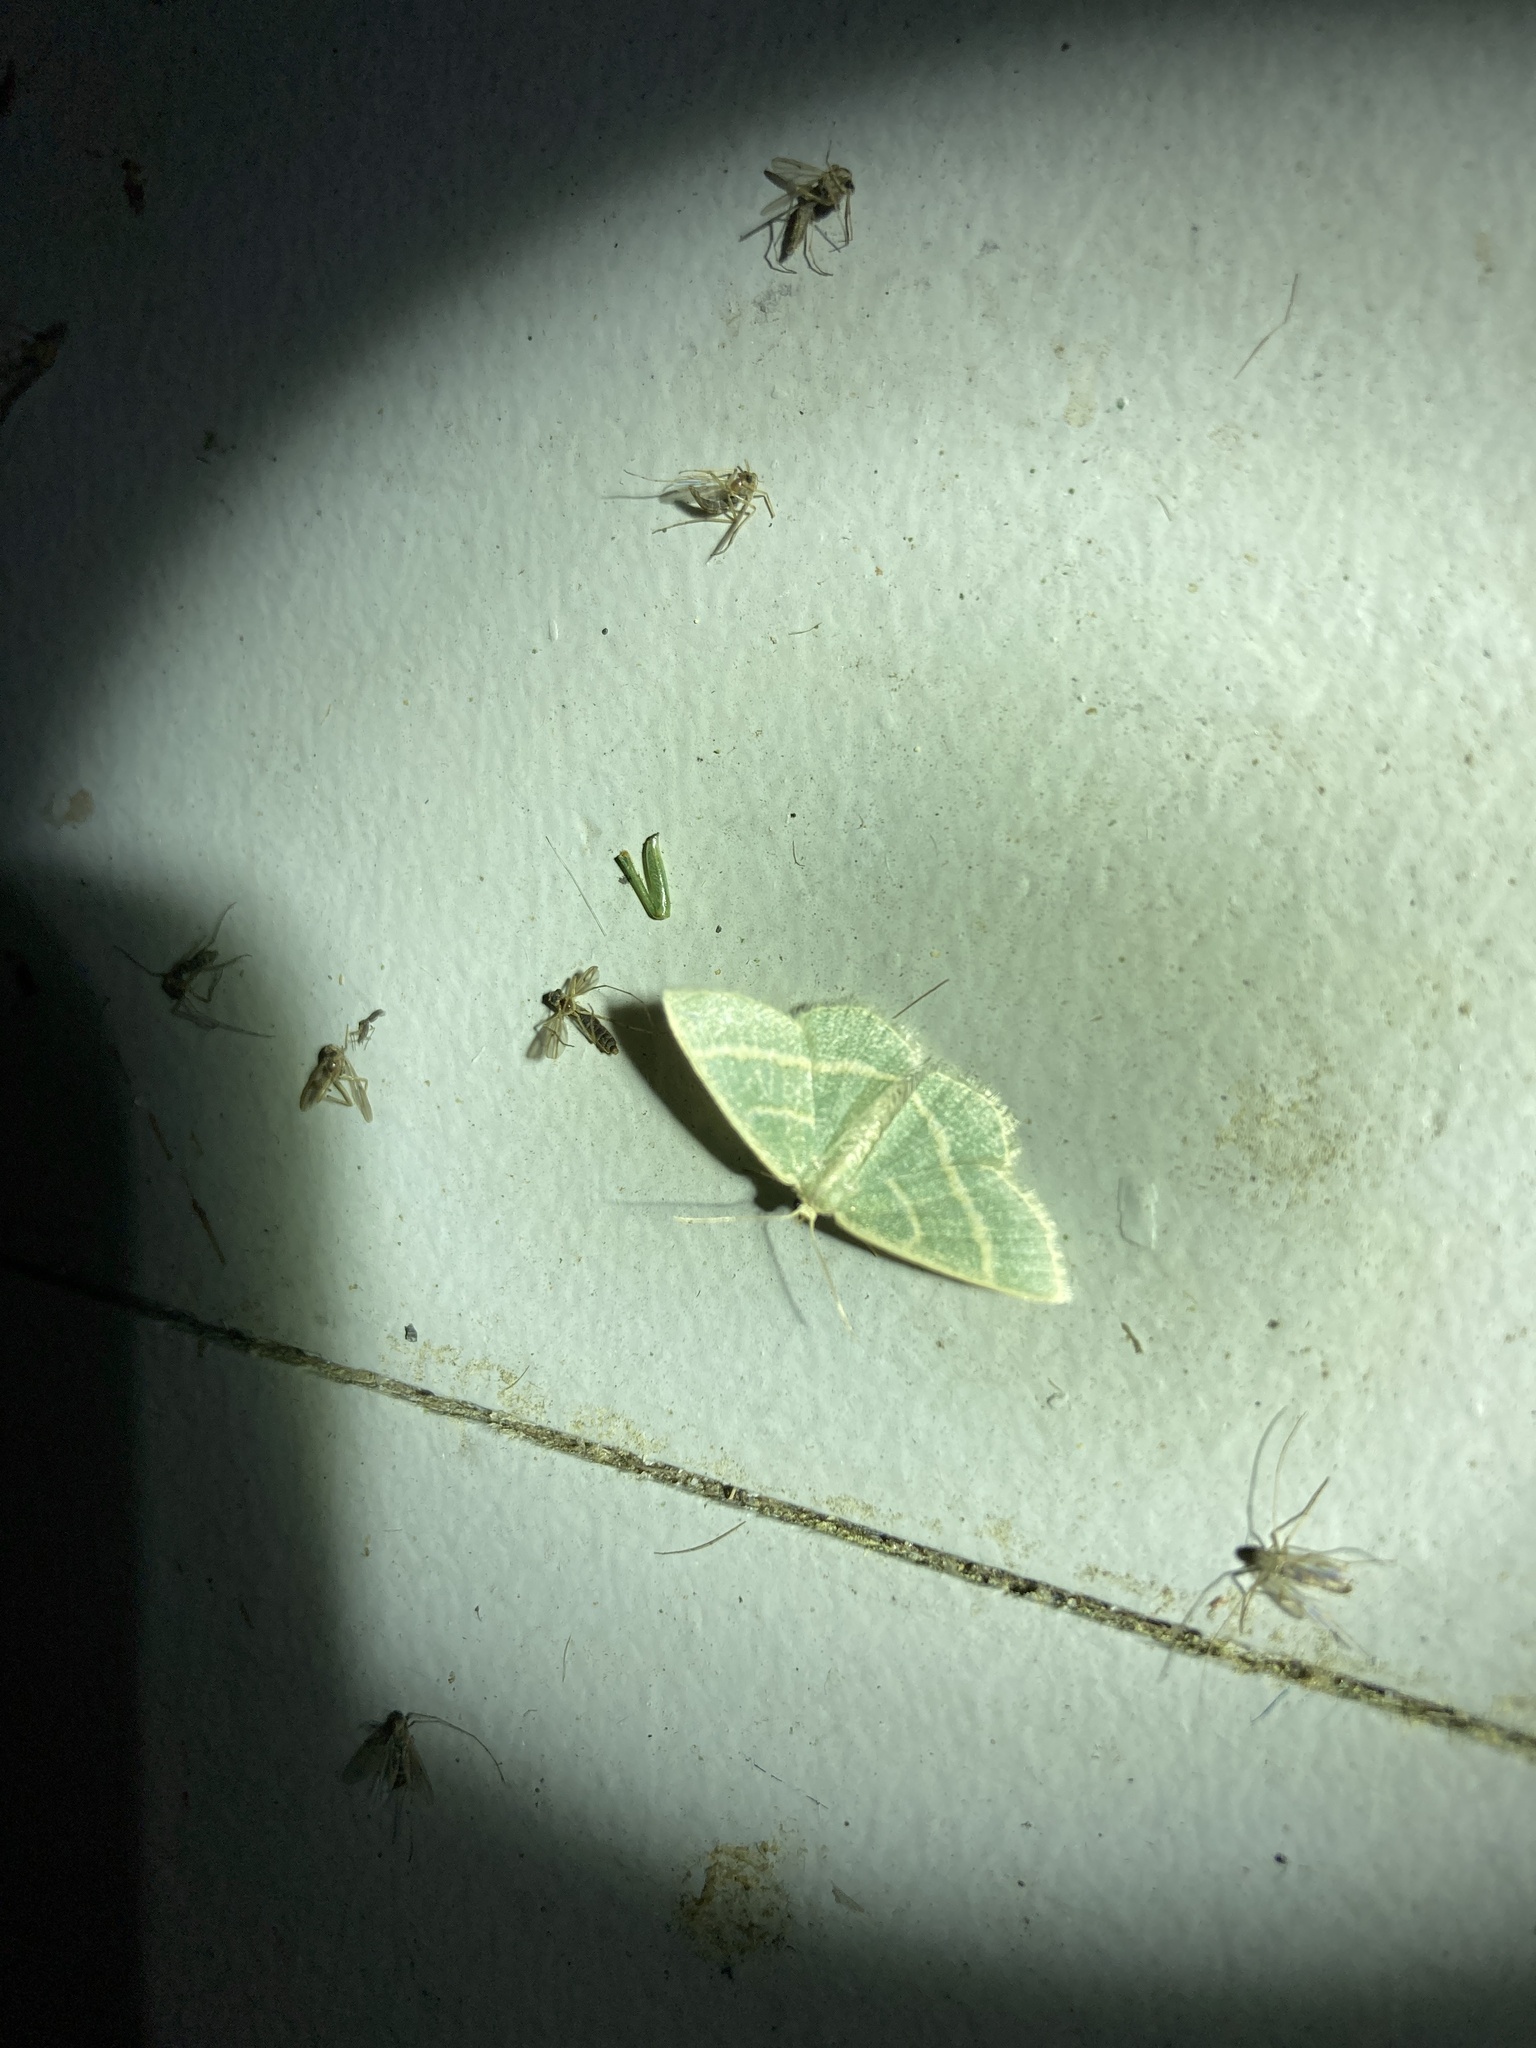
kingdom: Animalia
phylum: Arthropoda
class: Insecta
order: Lepidoptera
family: Geometridae
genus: Chlorochlamys
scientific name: Chlorochlamys chloroleucaria
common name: Blackberry looper
